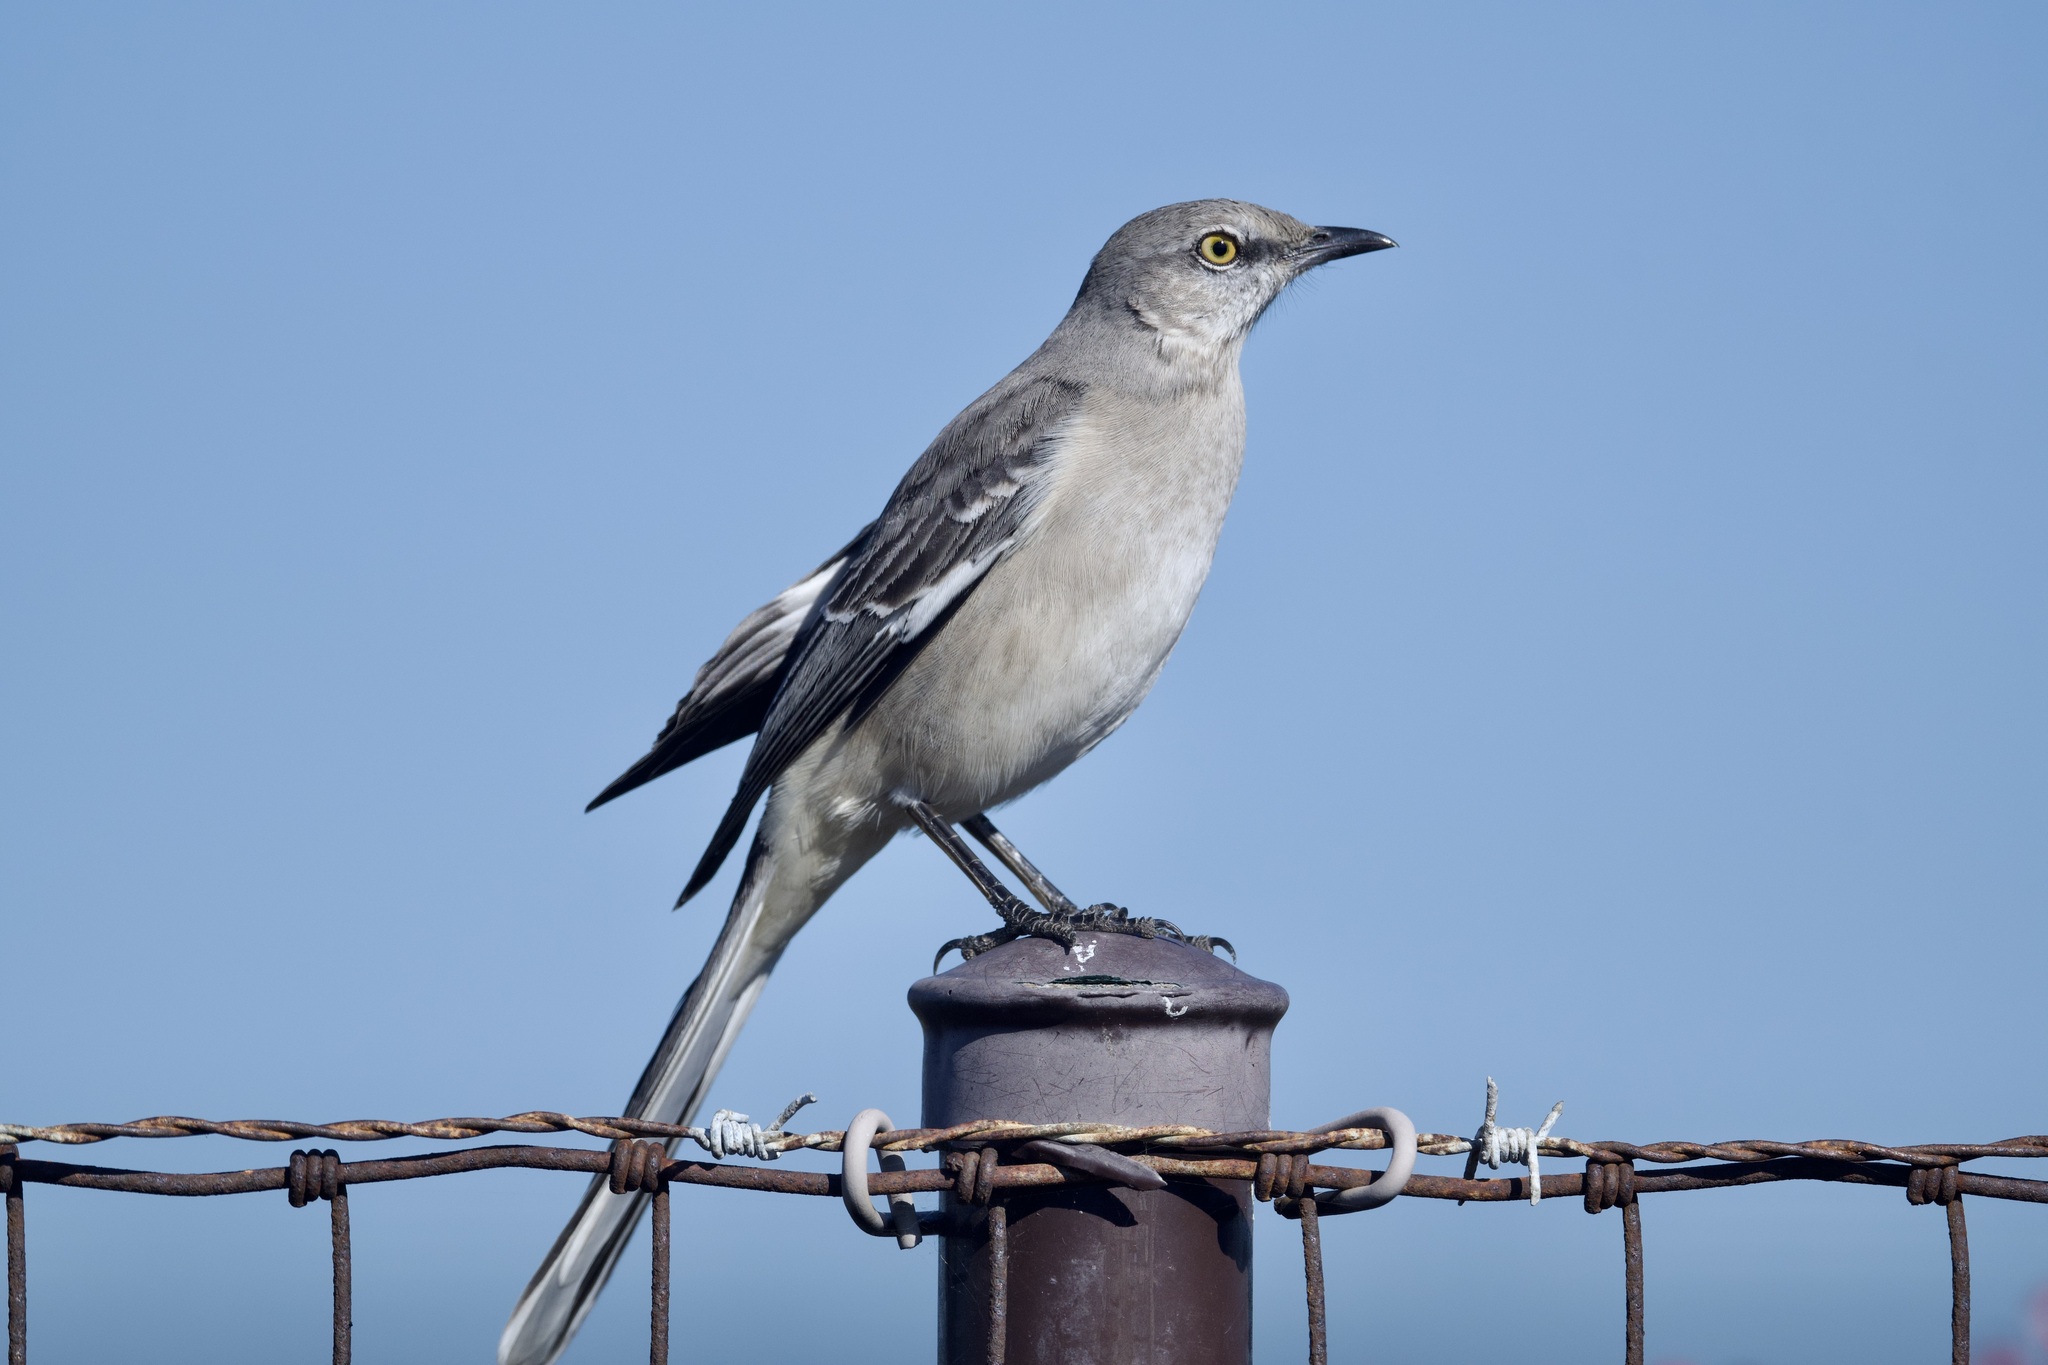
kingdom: Animalia
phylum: Chordata
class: Aves
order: Passeriformes
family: Mimidae
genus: Mimus
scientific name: Mimus polyglottos
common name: Northern mockingbird
